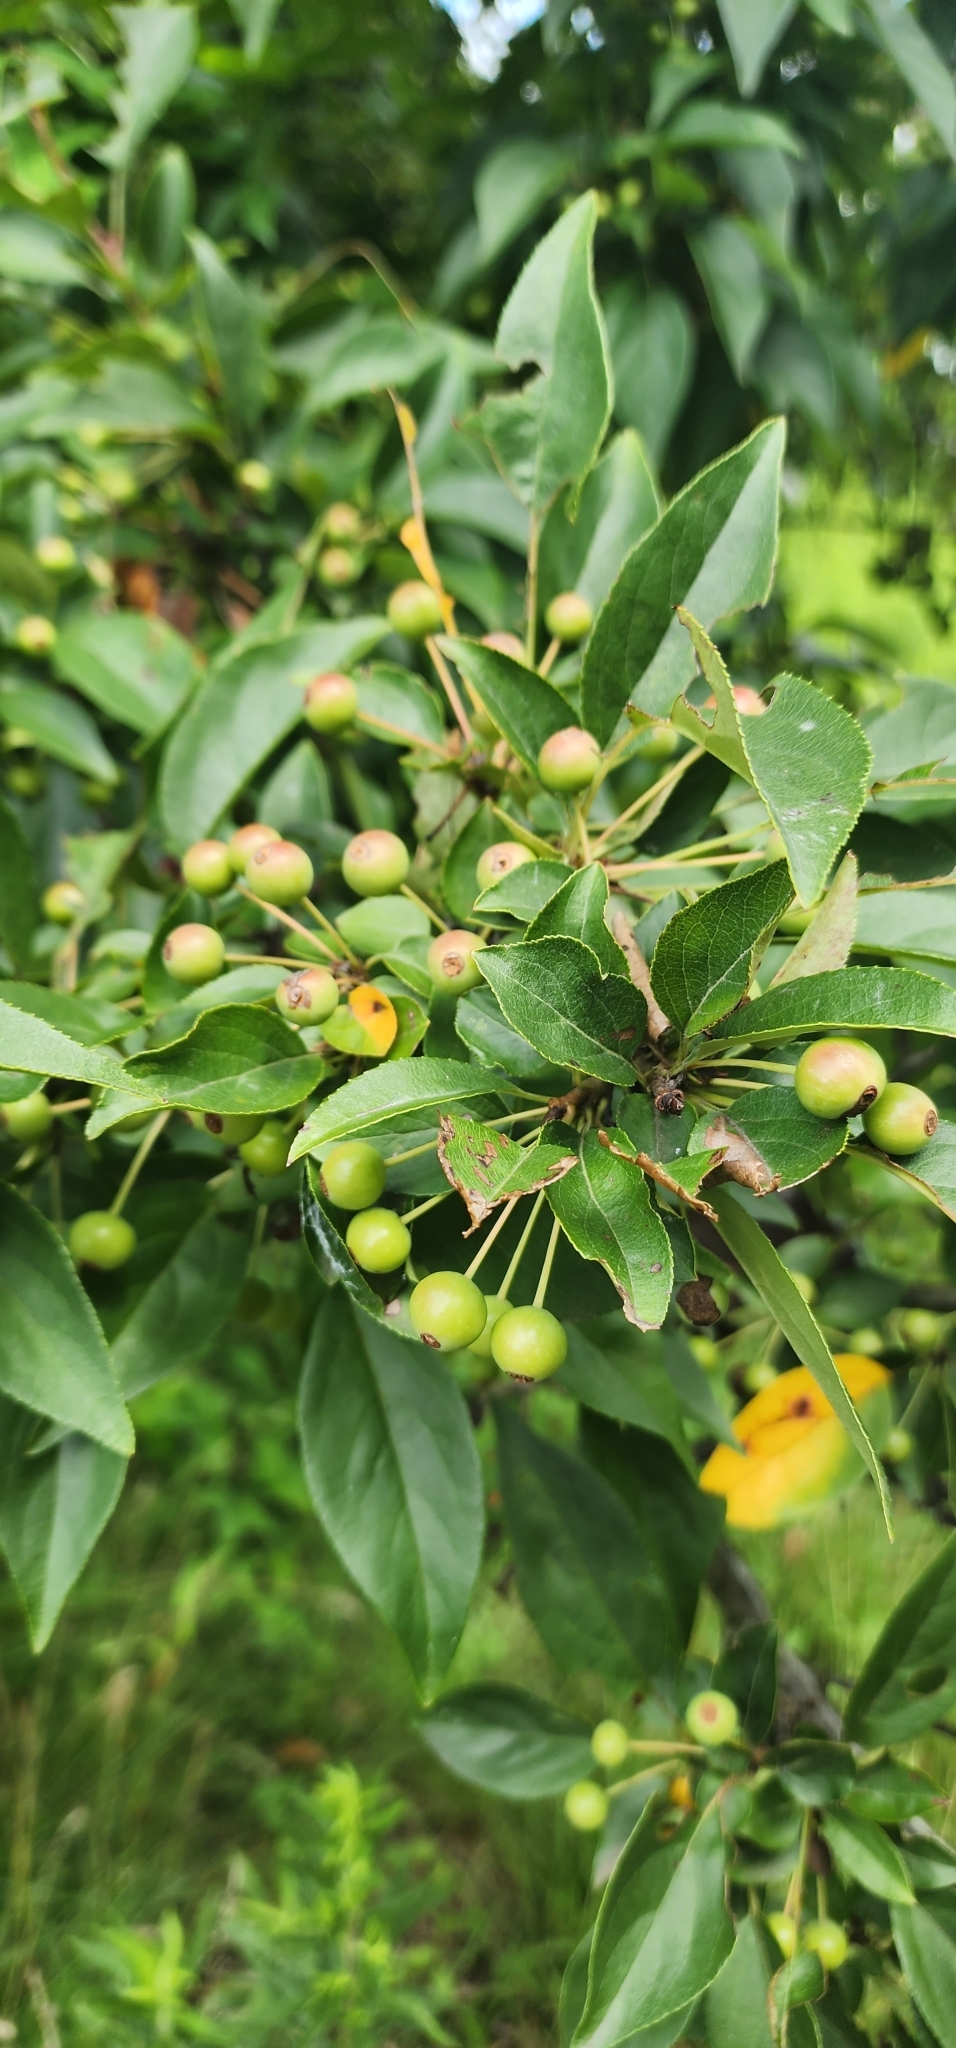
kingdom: Plantae
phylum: Tracheophyta
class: Magnoliopsida
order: Rosales
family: Rosaceae
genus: Pyrus
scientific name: Pyrus calleryana
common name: Callery pear
